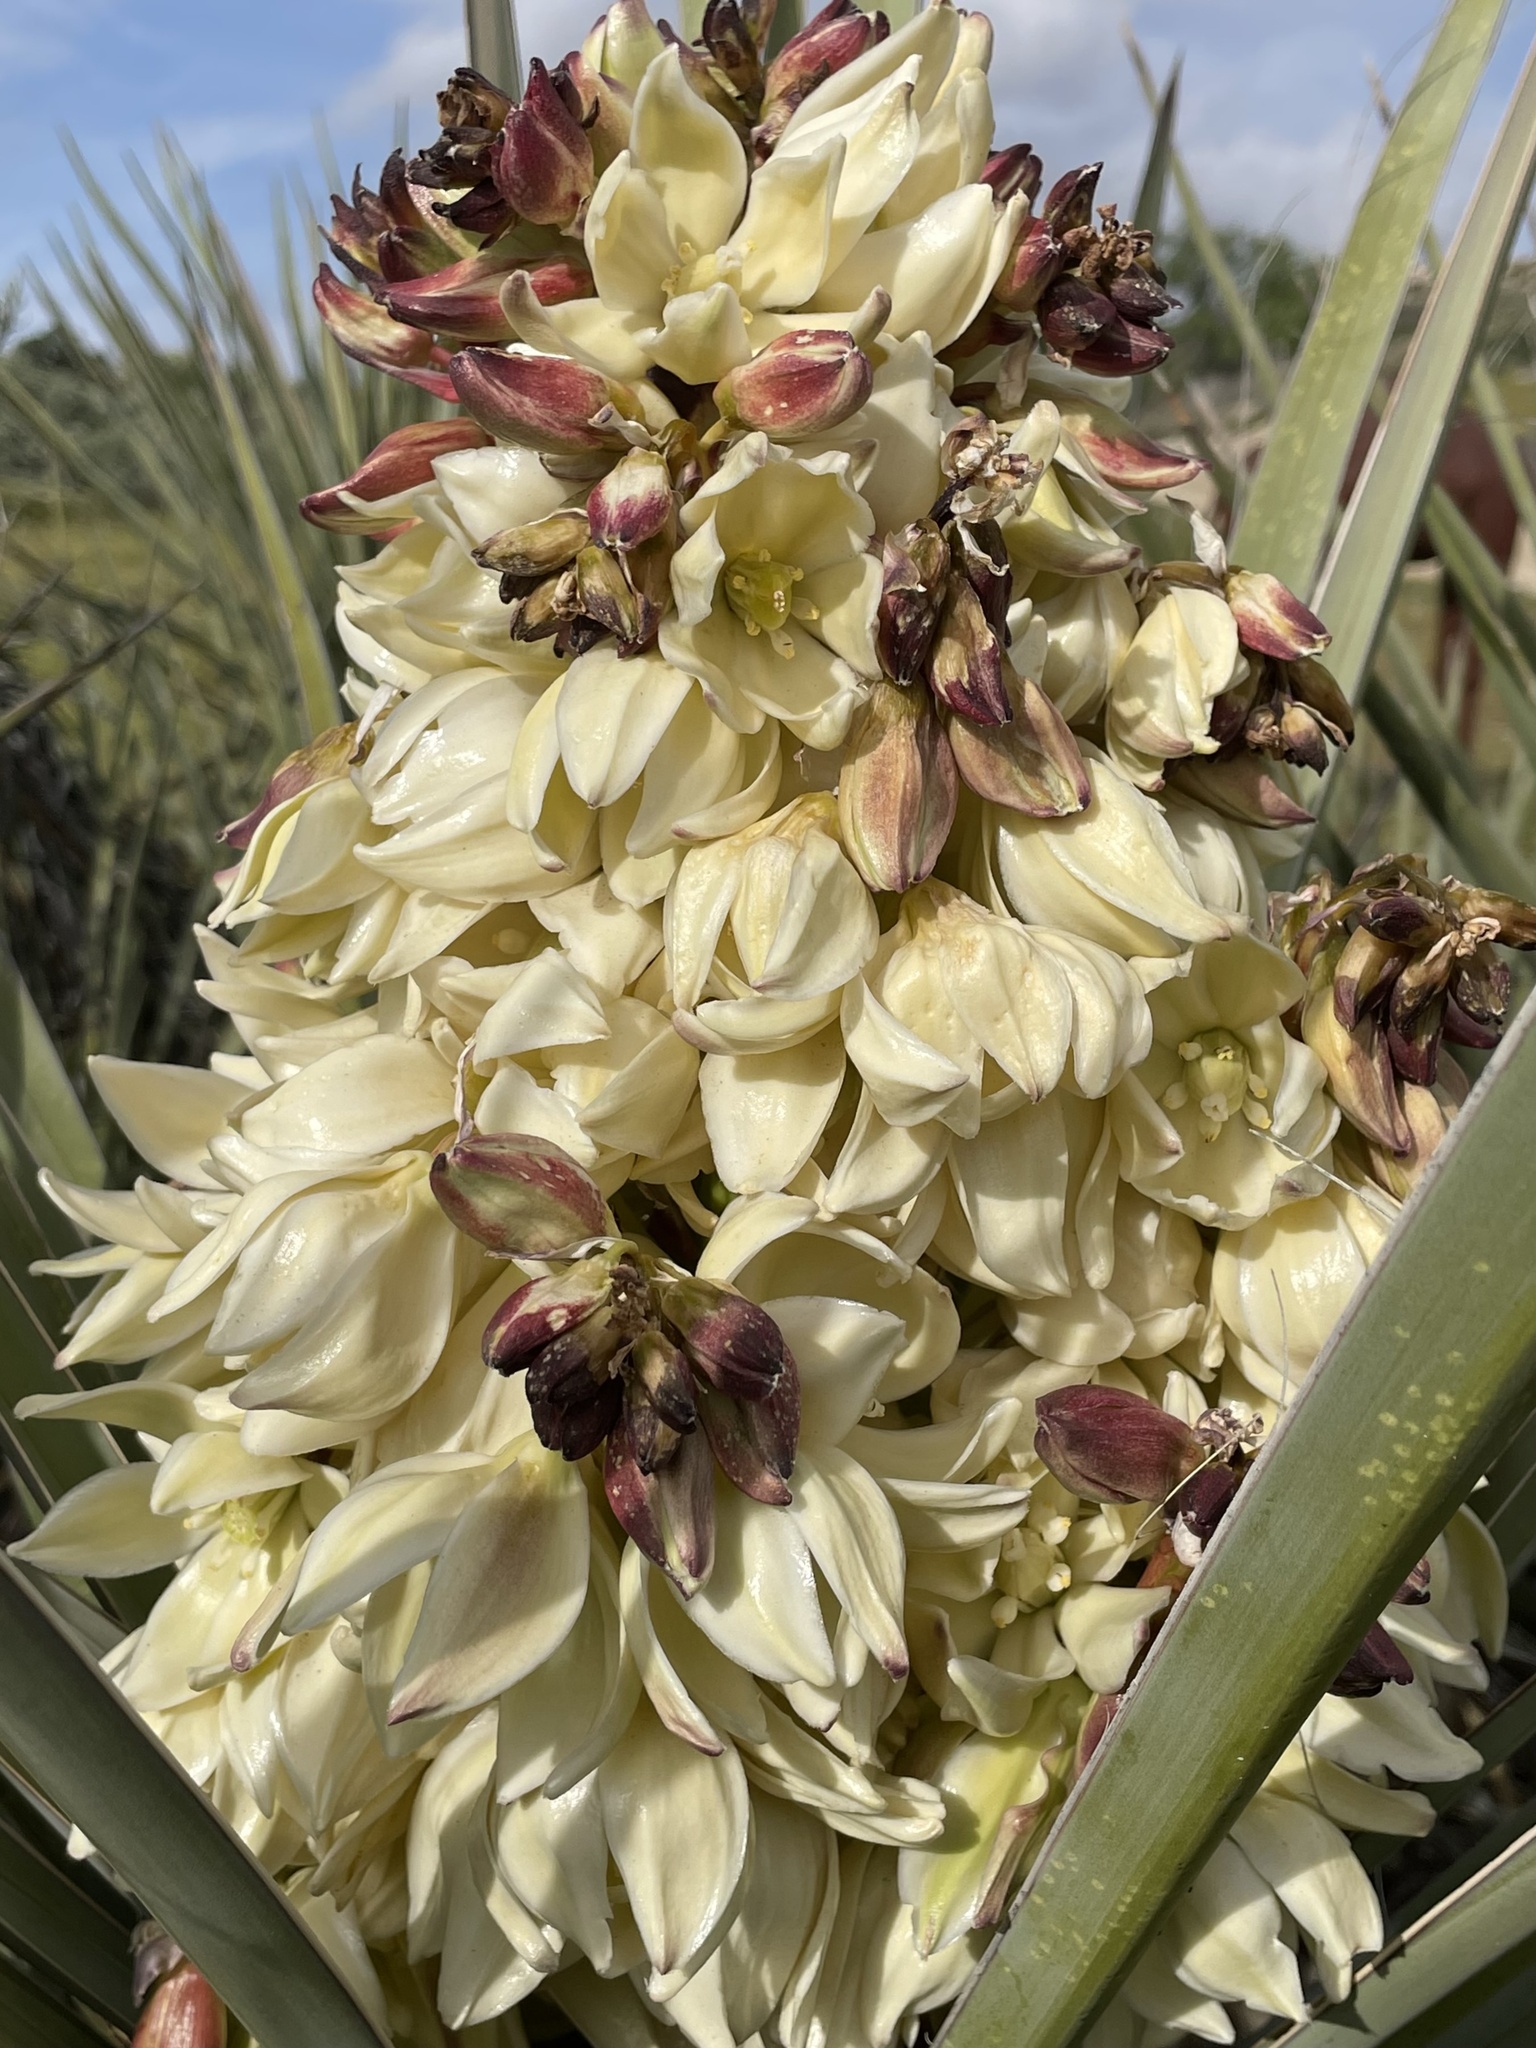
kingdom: Plantae
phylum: Tracheophyta
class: Liliopsida
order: Asparagales
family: Asparagaceae
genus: Yucca
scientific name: Yucca schidigera
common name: Mojave yucca
